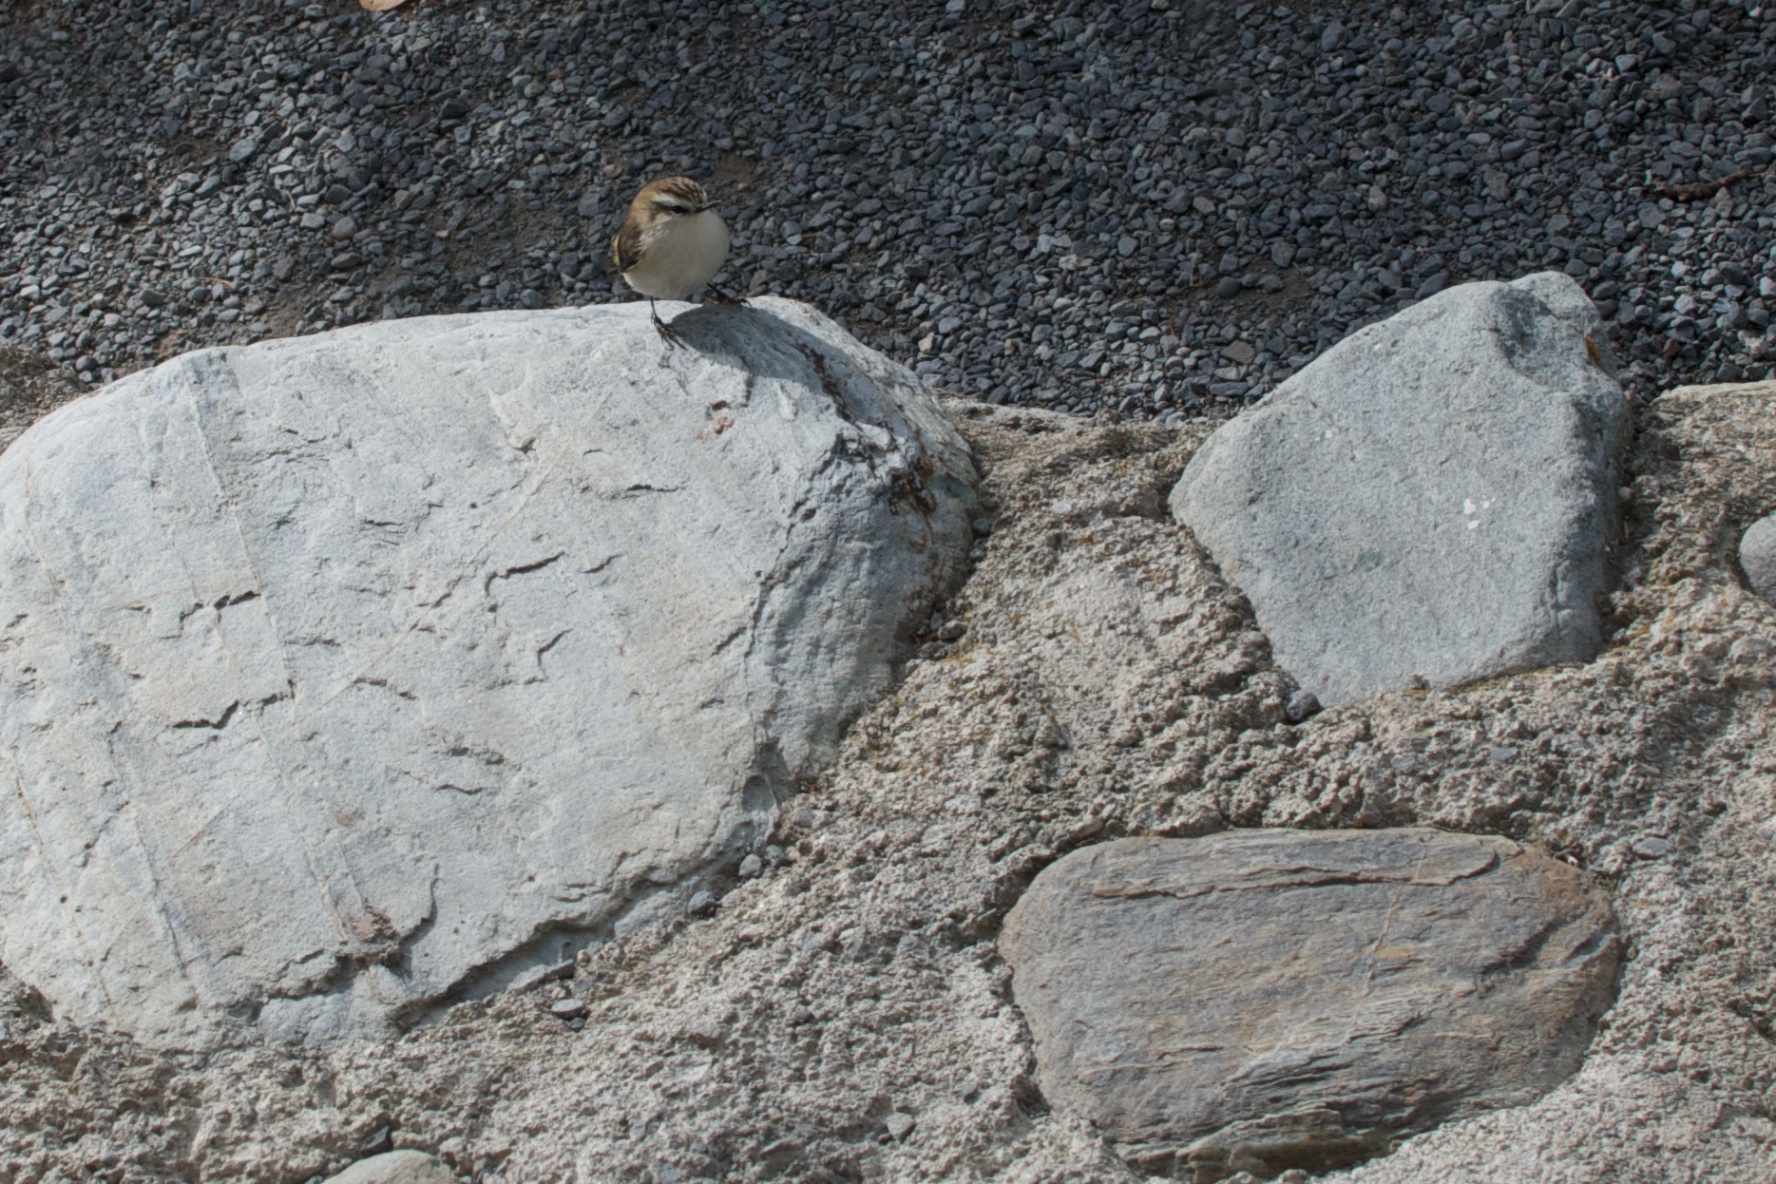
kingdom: Animalia
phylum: Chordata
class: Aves
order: Passeriformes
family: Acanthisittidae
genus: Acanthisitta
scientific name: Acanthisitta chloris
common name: Rifleman
